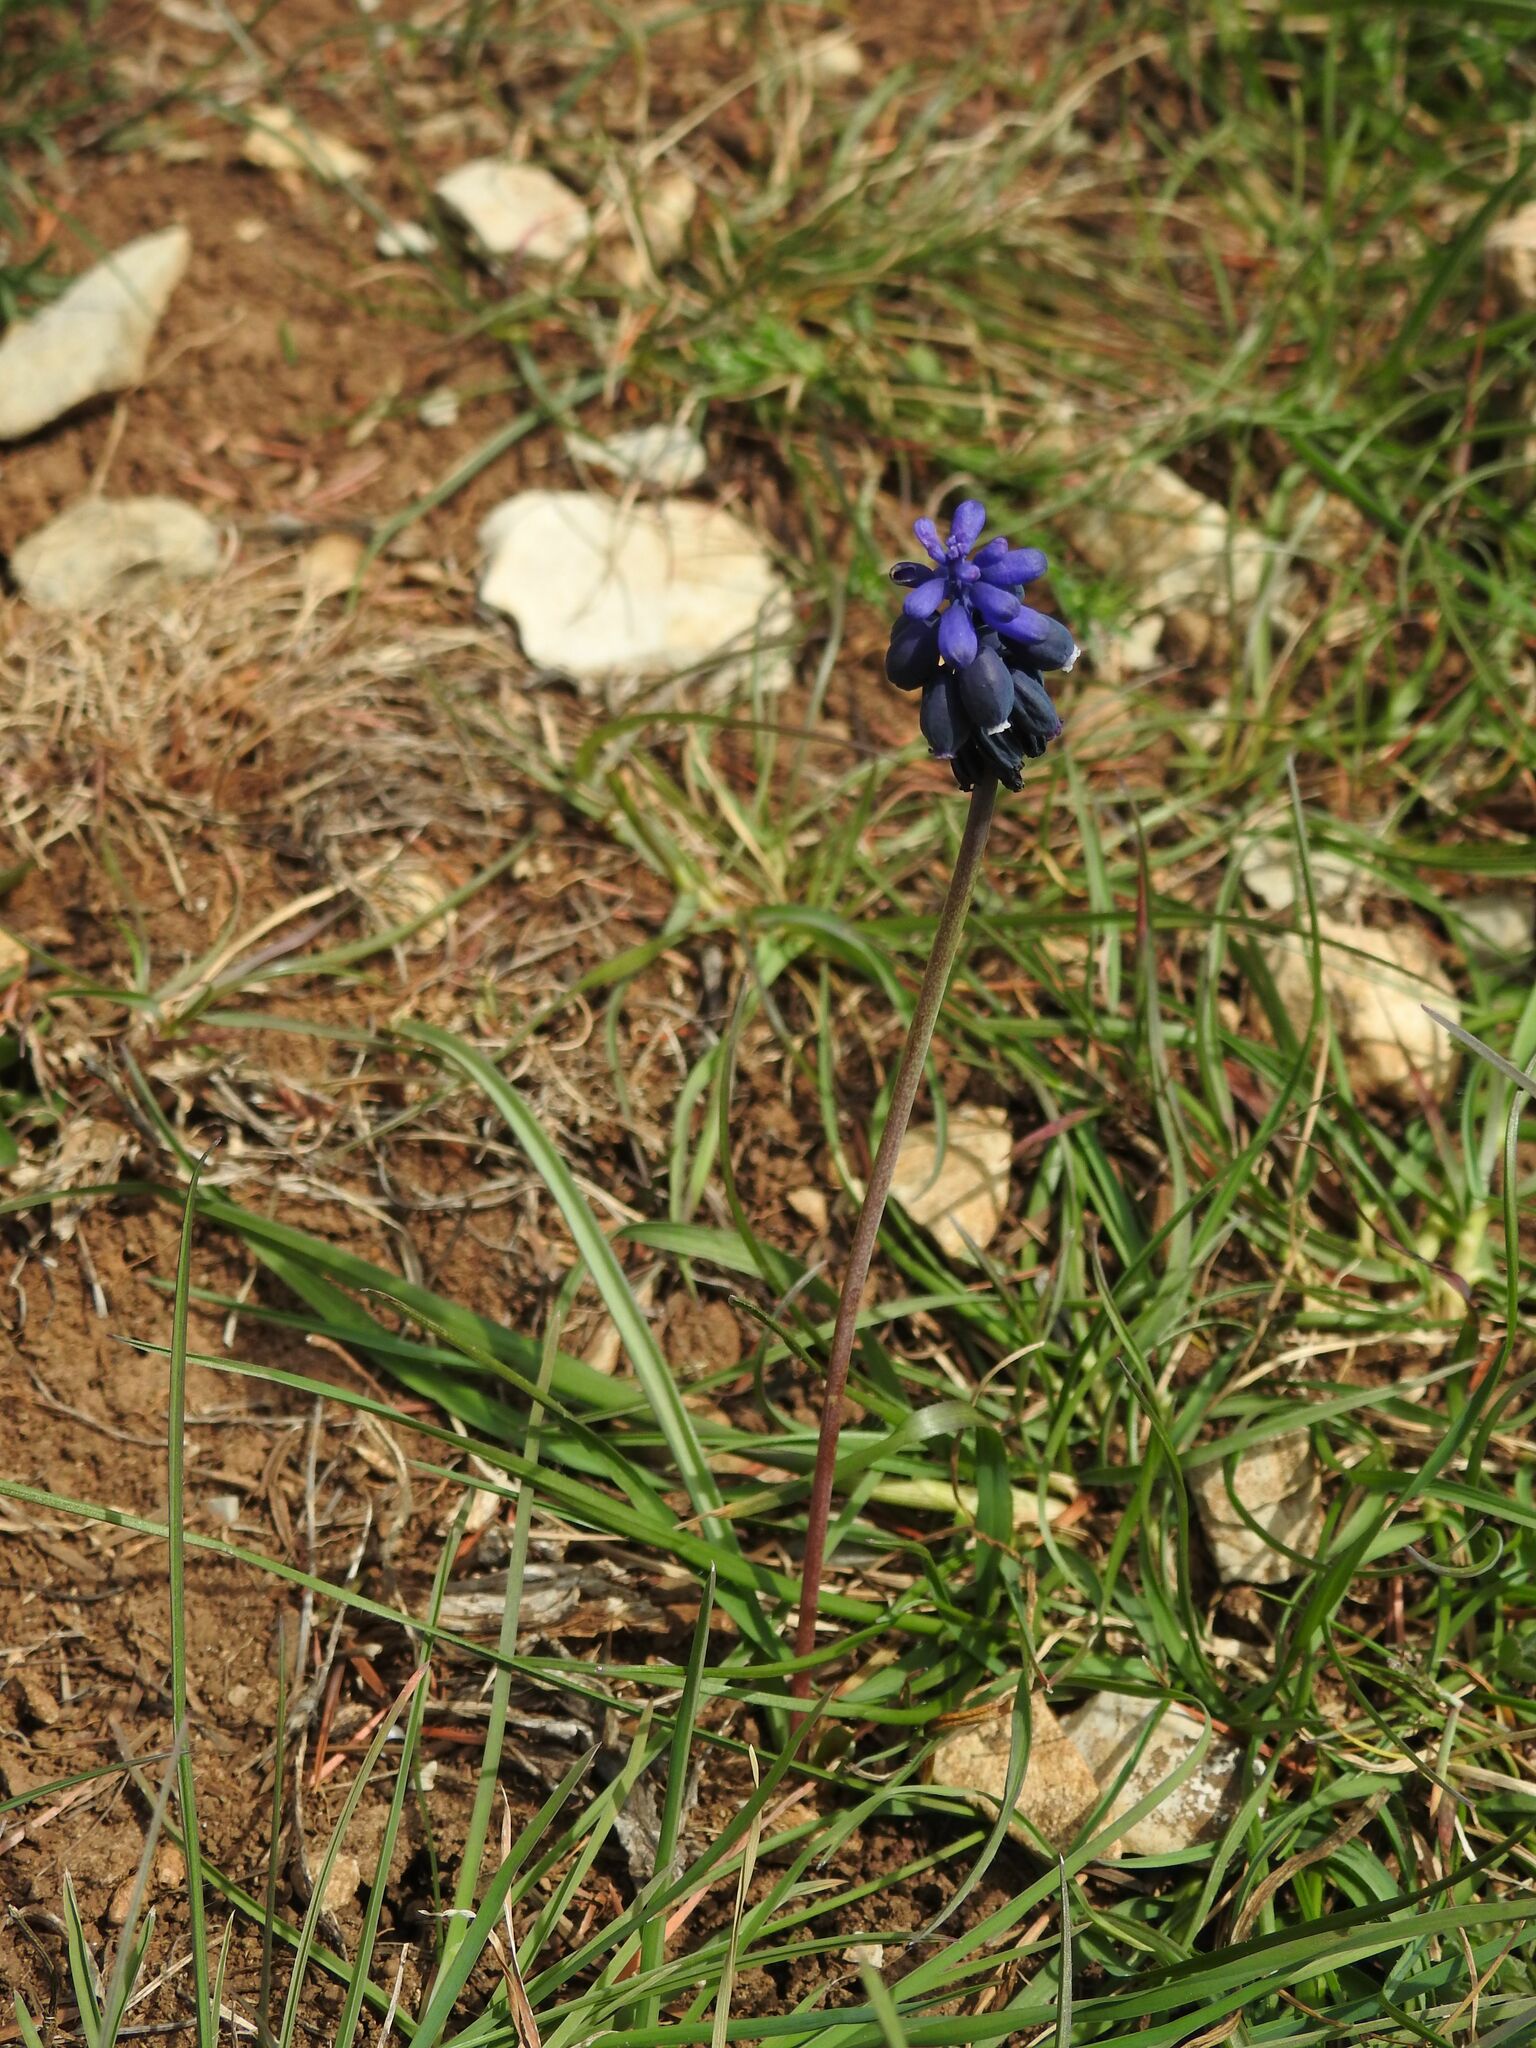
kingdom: Plantae
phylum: Tracheophyta
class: Liliopsida
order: Asparagales
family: Asparagaceae
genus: Muscari
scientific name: Muscari neglectum
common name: Grape-hyacinth
